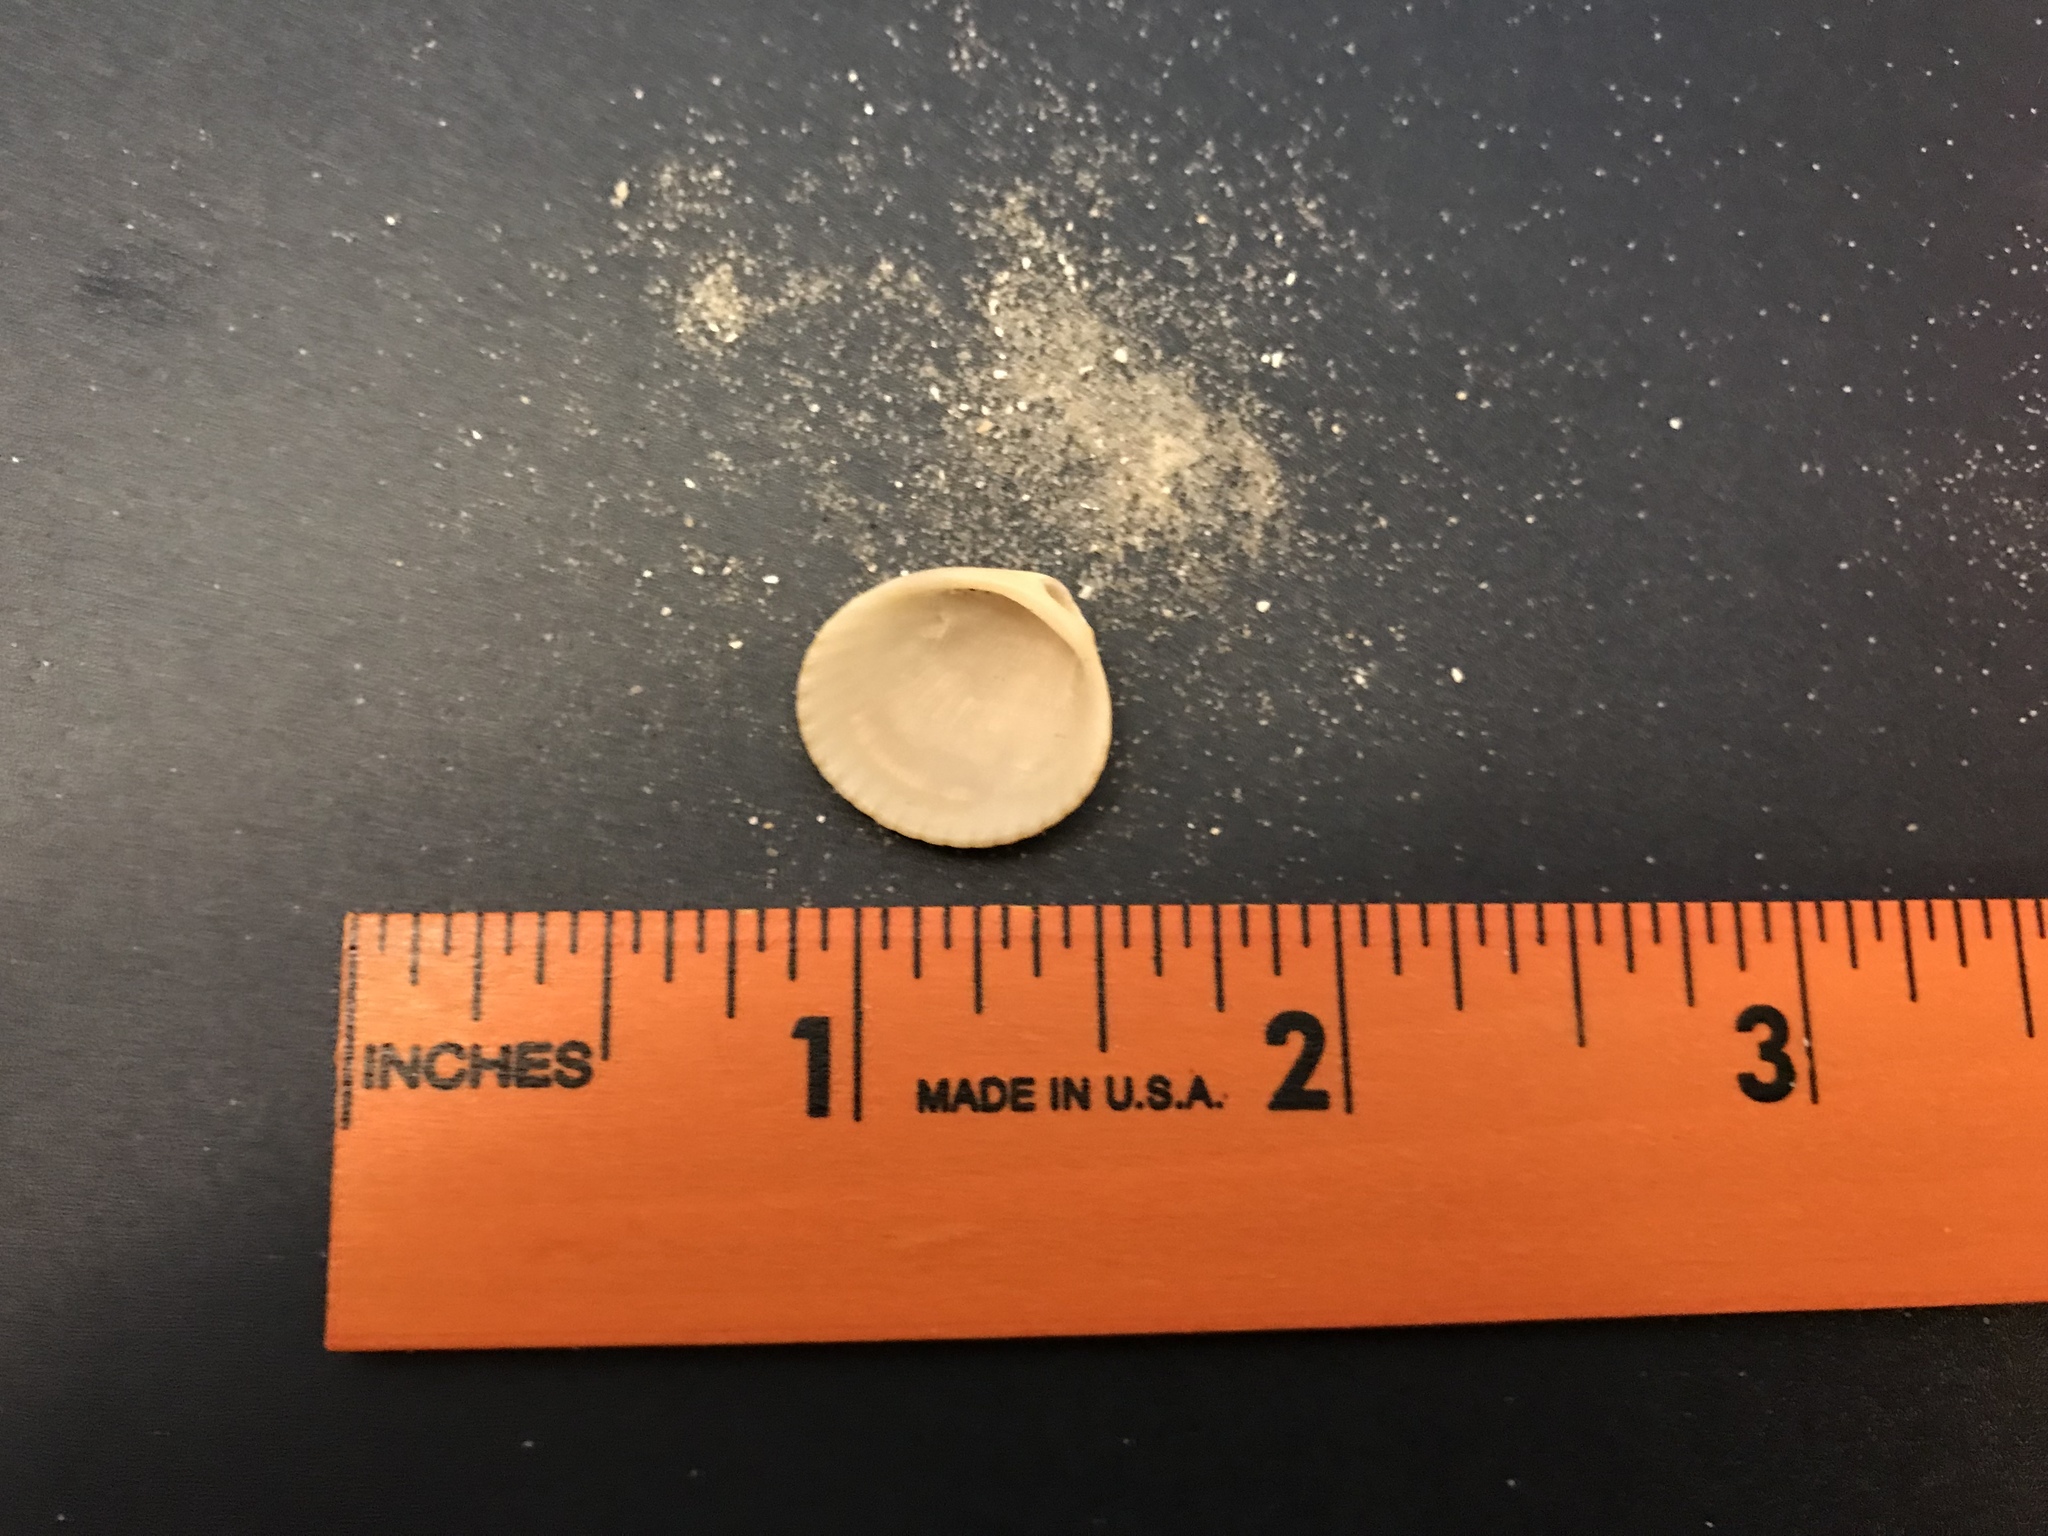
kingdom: Animalia
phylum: Mollusca
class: Bivalvia
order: Arcida
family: Arcidae
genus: Lunarca
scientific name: Lunarca ovalis
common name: Blood ark
